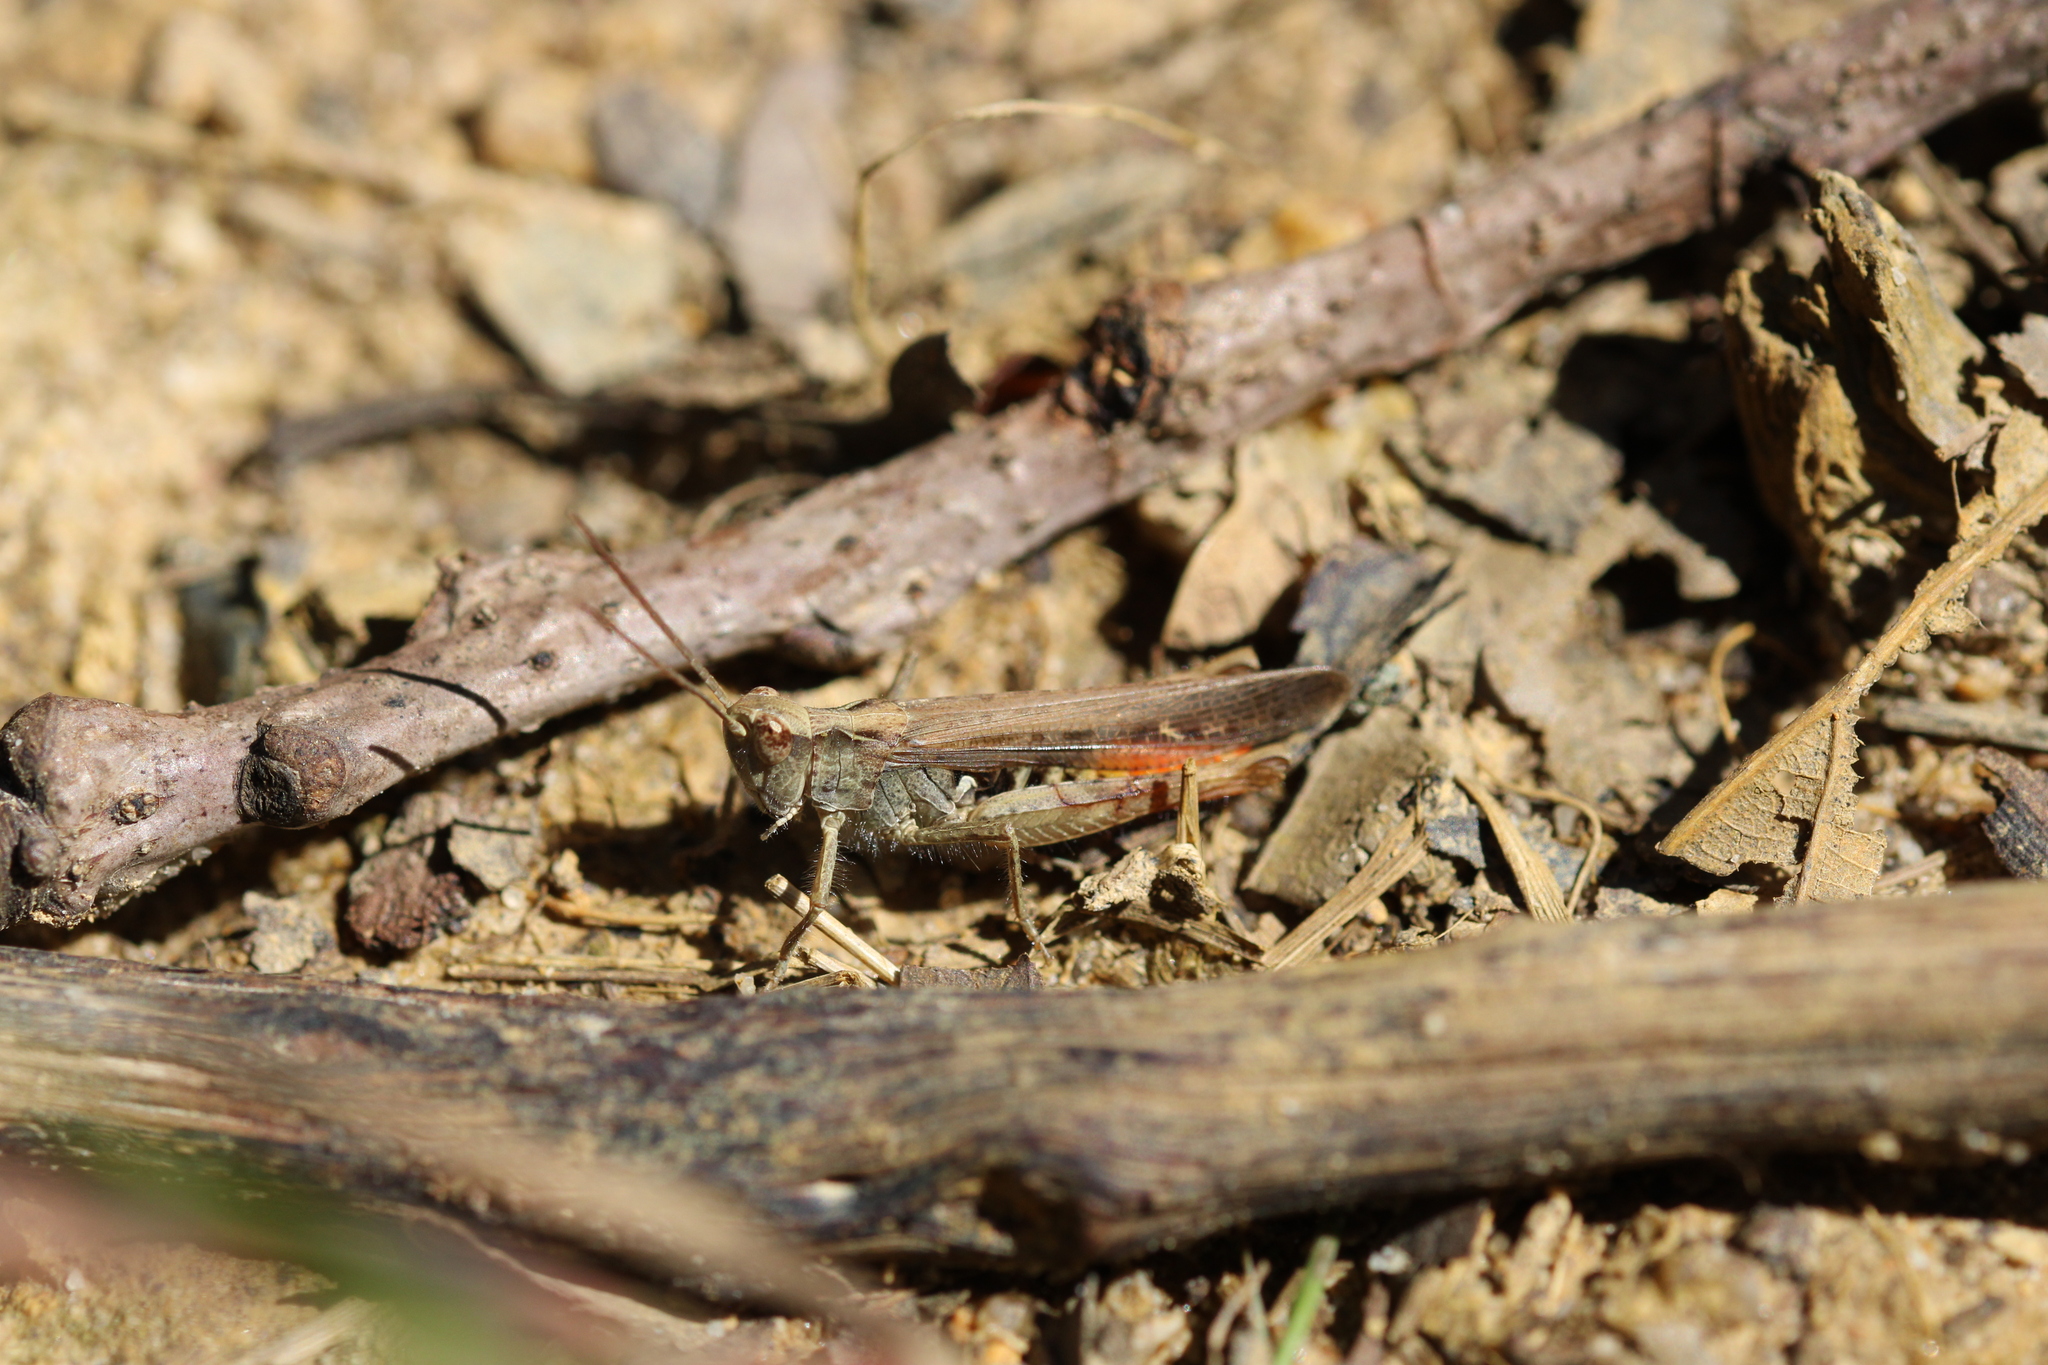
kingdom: Animalia
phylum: Arthropoda
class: Insecta
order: Orthoptera
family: Acrididae
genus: Chorthippus
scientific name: Chorthippus brunneus
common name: Field grasshopper
